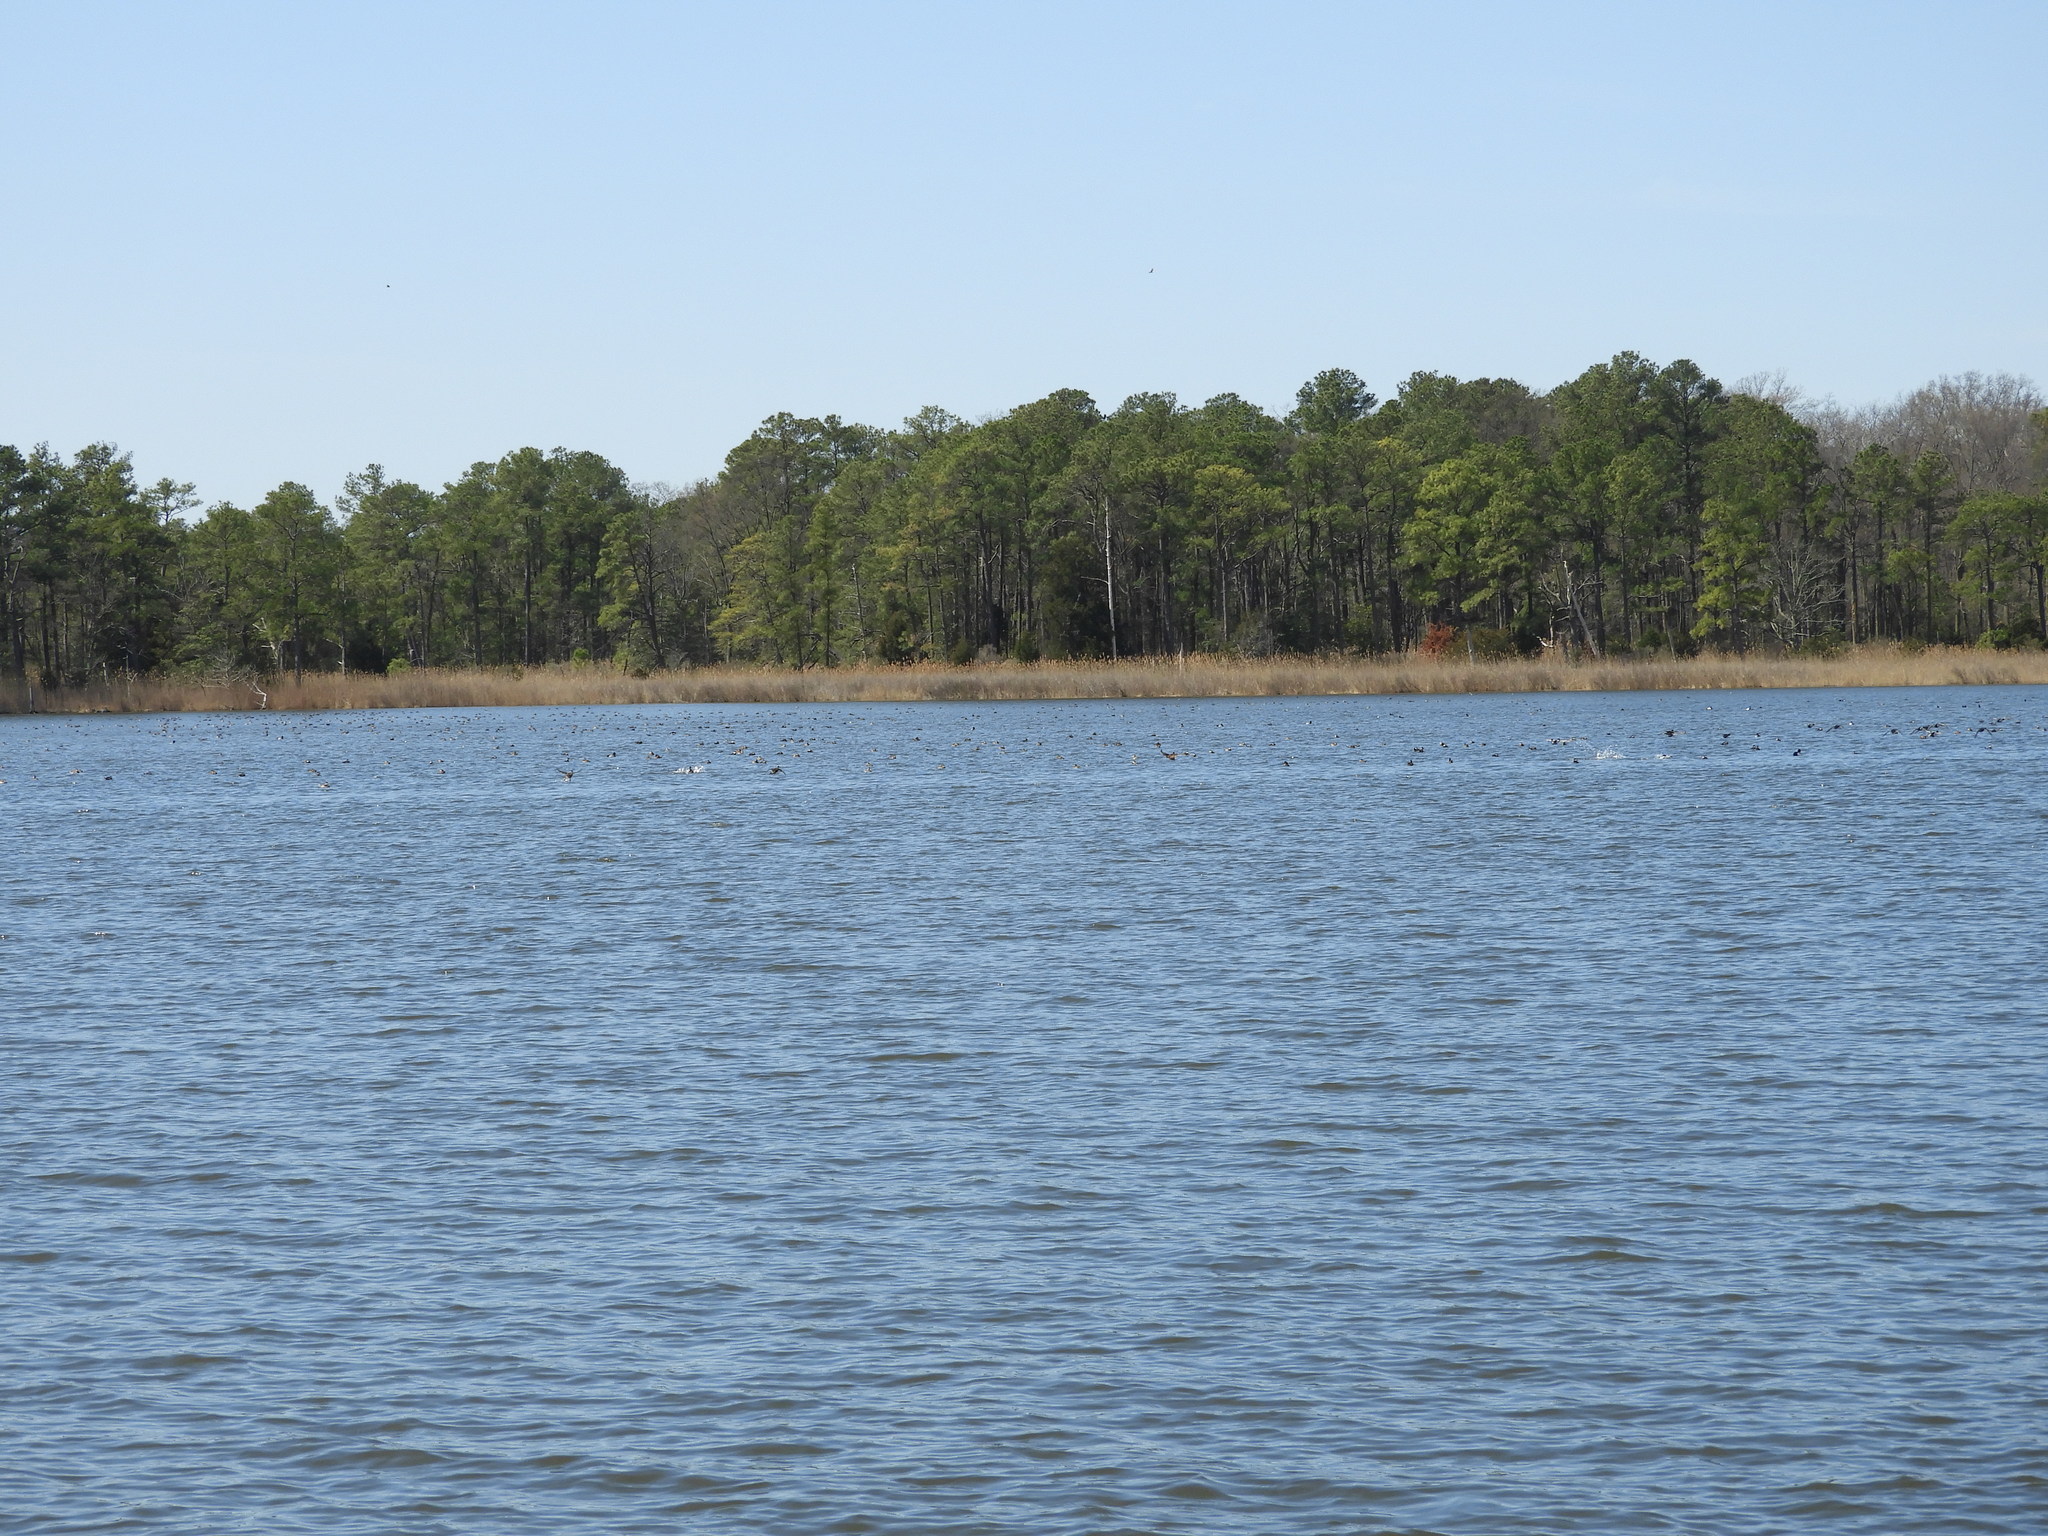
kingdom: Animalia
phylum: Chordata
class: Aves
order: Anseriformes
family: Anatidae
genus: Oxyura
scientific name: Oxyura jamaicensis
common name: Ruddy duck
